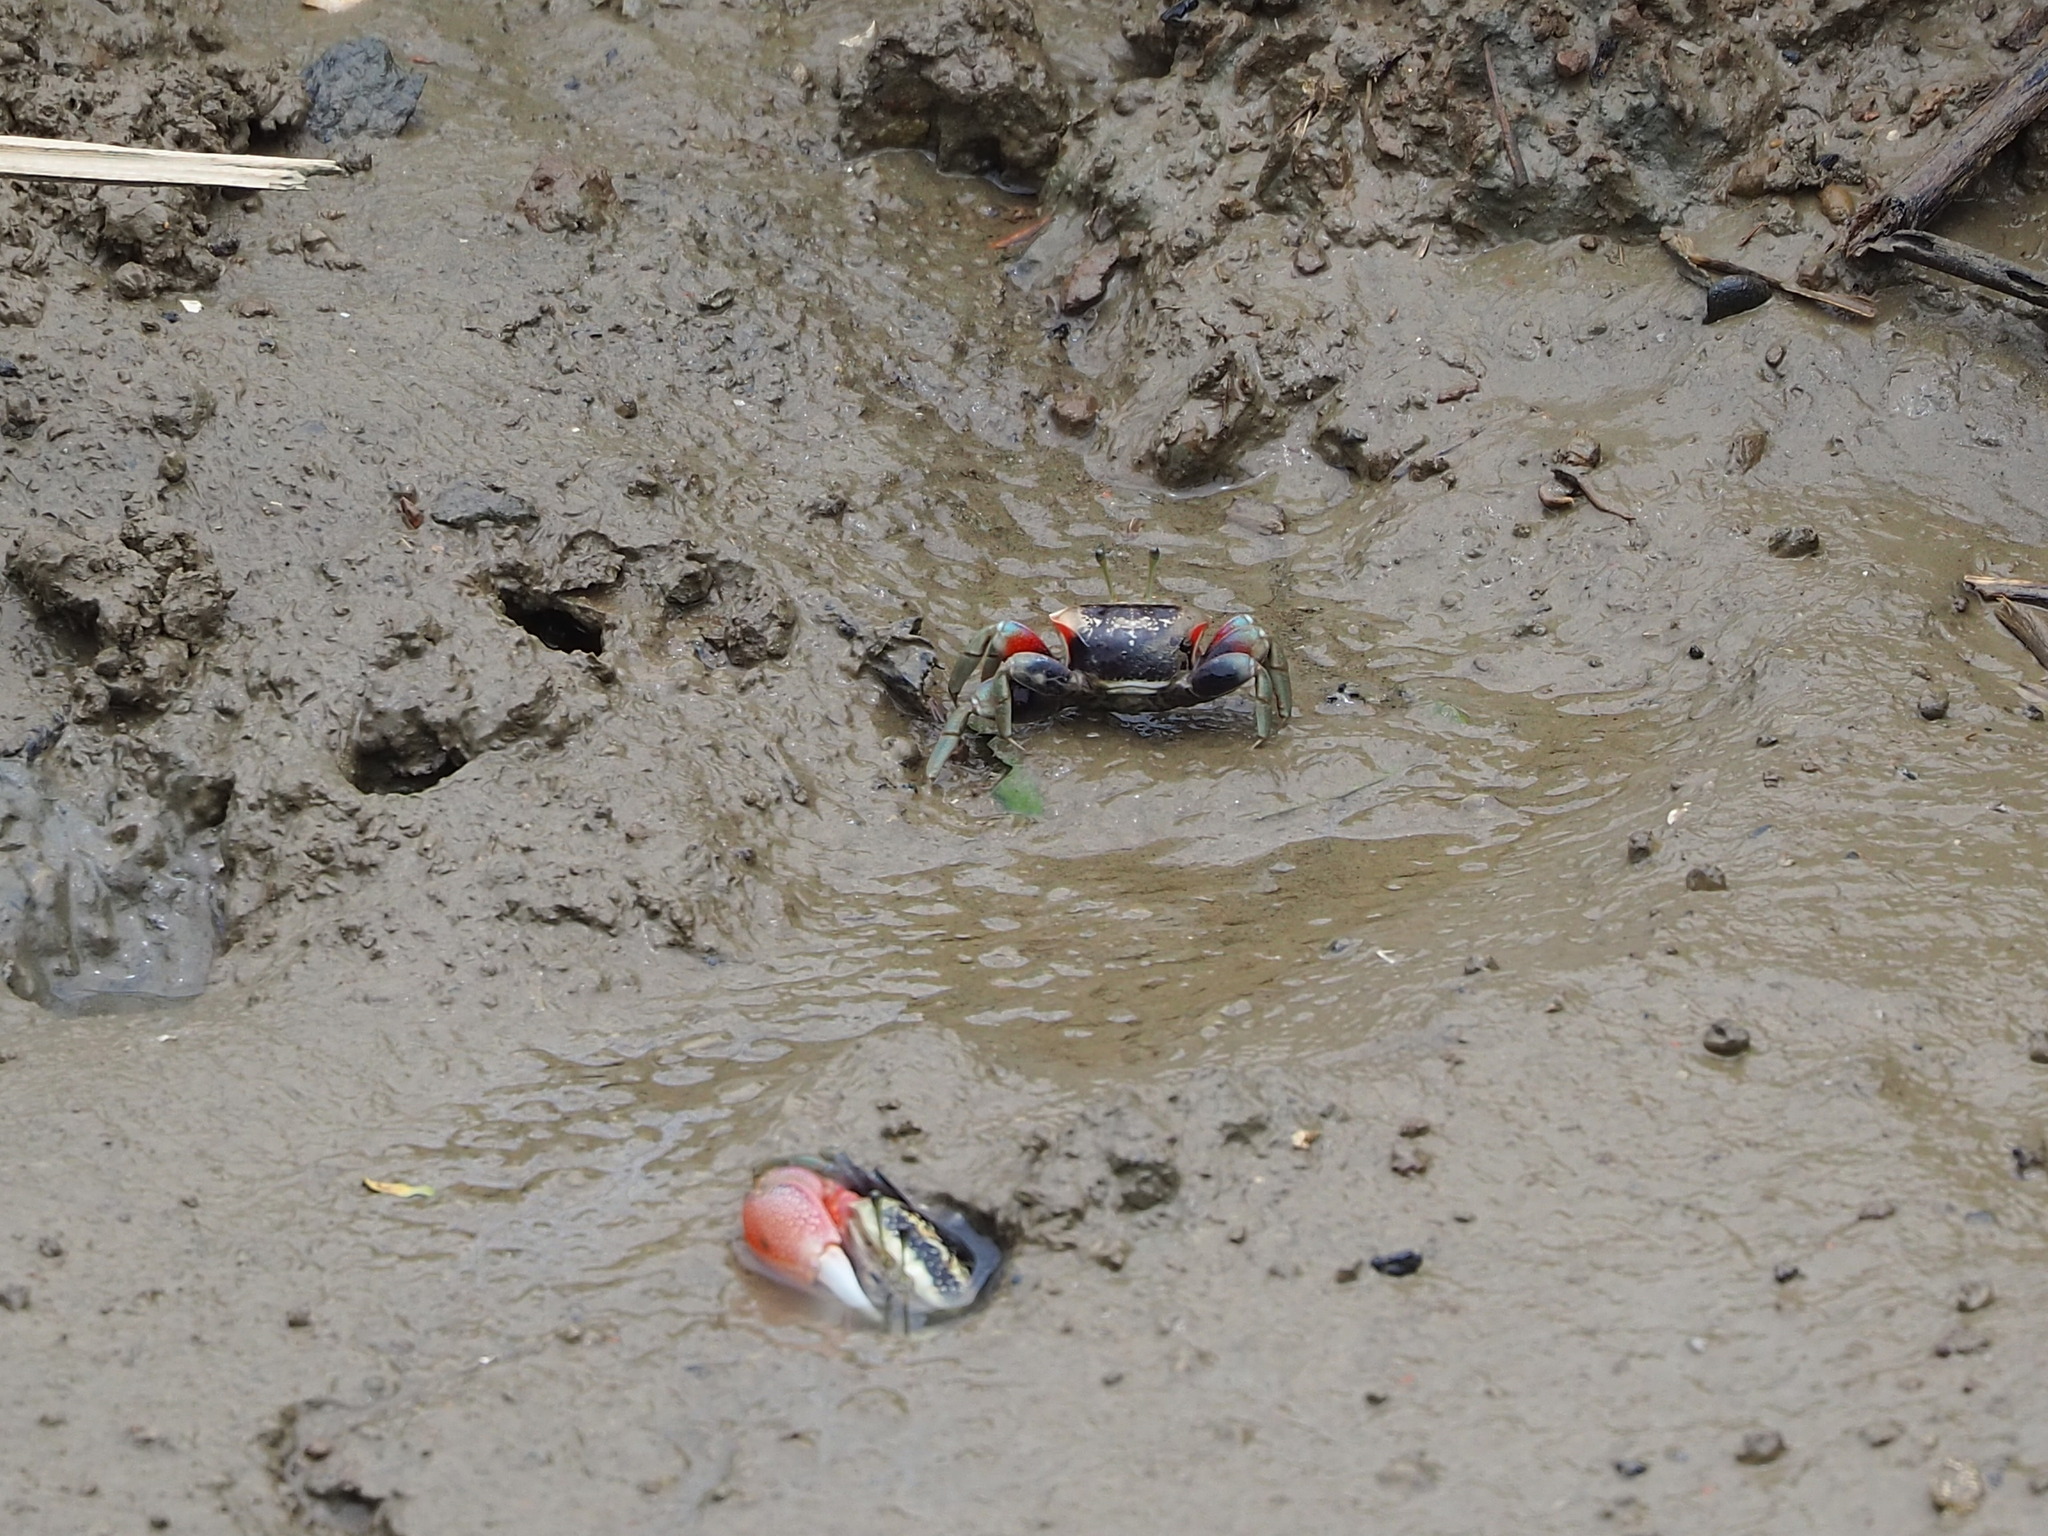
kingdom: Animalia
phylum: Arthropoda
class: Malacostraca
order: Decapoda
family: Ocypodidae
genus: Tubuca
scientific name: Tubuca arcuata
